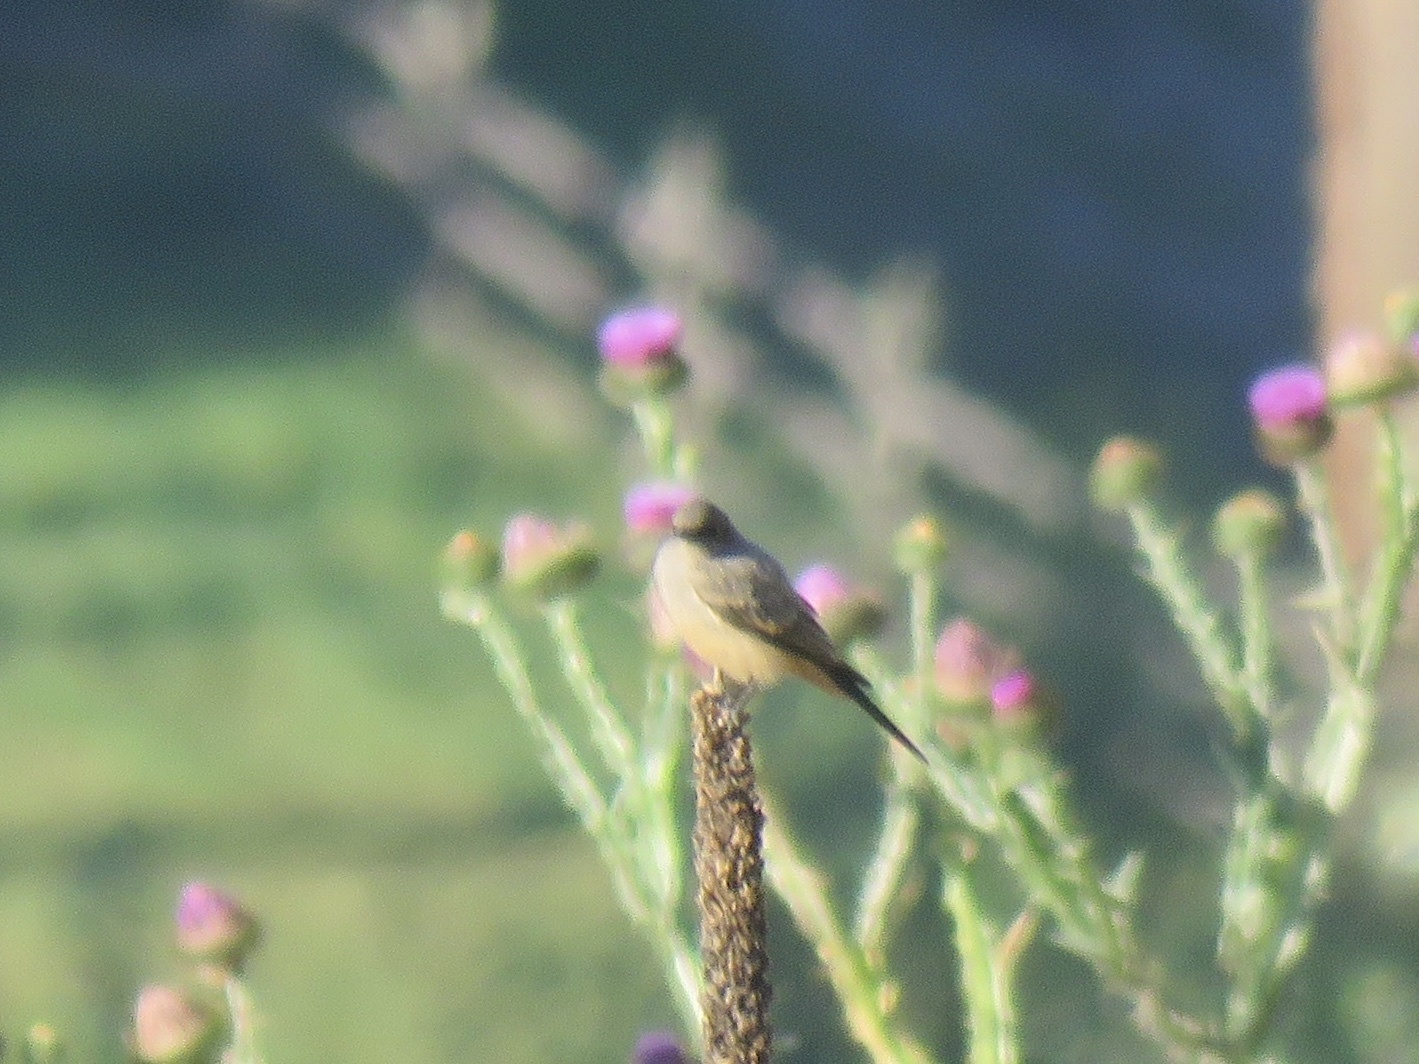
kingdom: Animalia
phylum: Chordata
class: Aves
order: Passeriformes
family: Tyrannidae
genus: Sayornis
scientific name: Sayornis saya
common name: Say's phoebe
